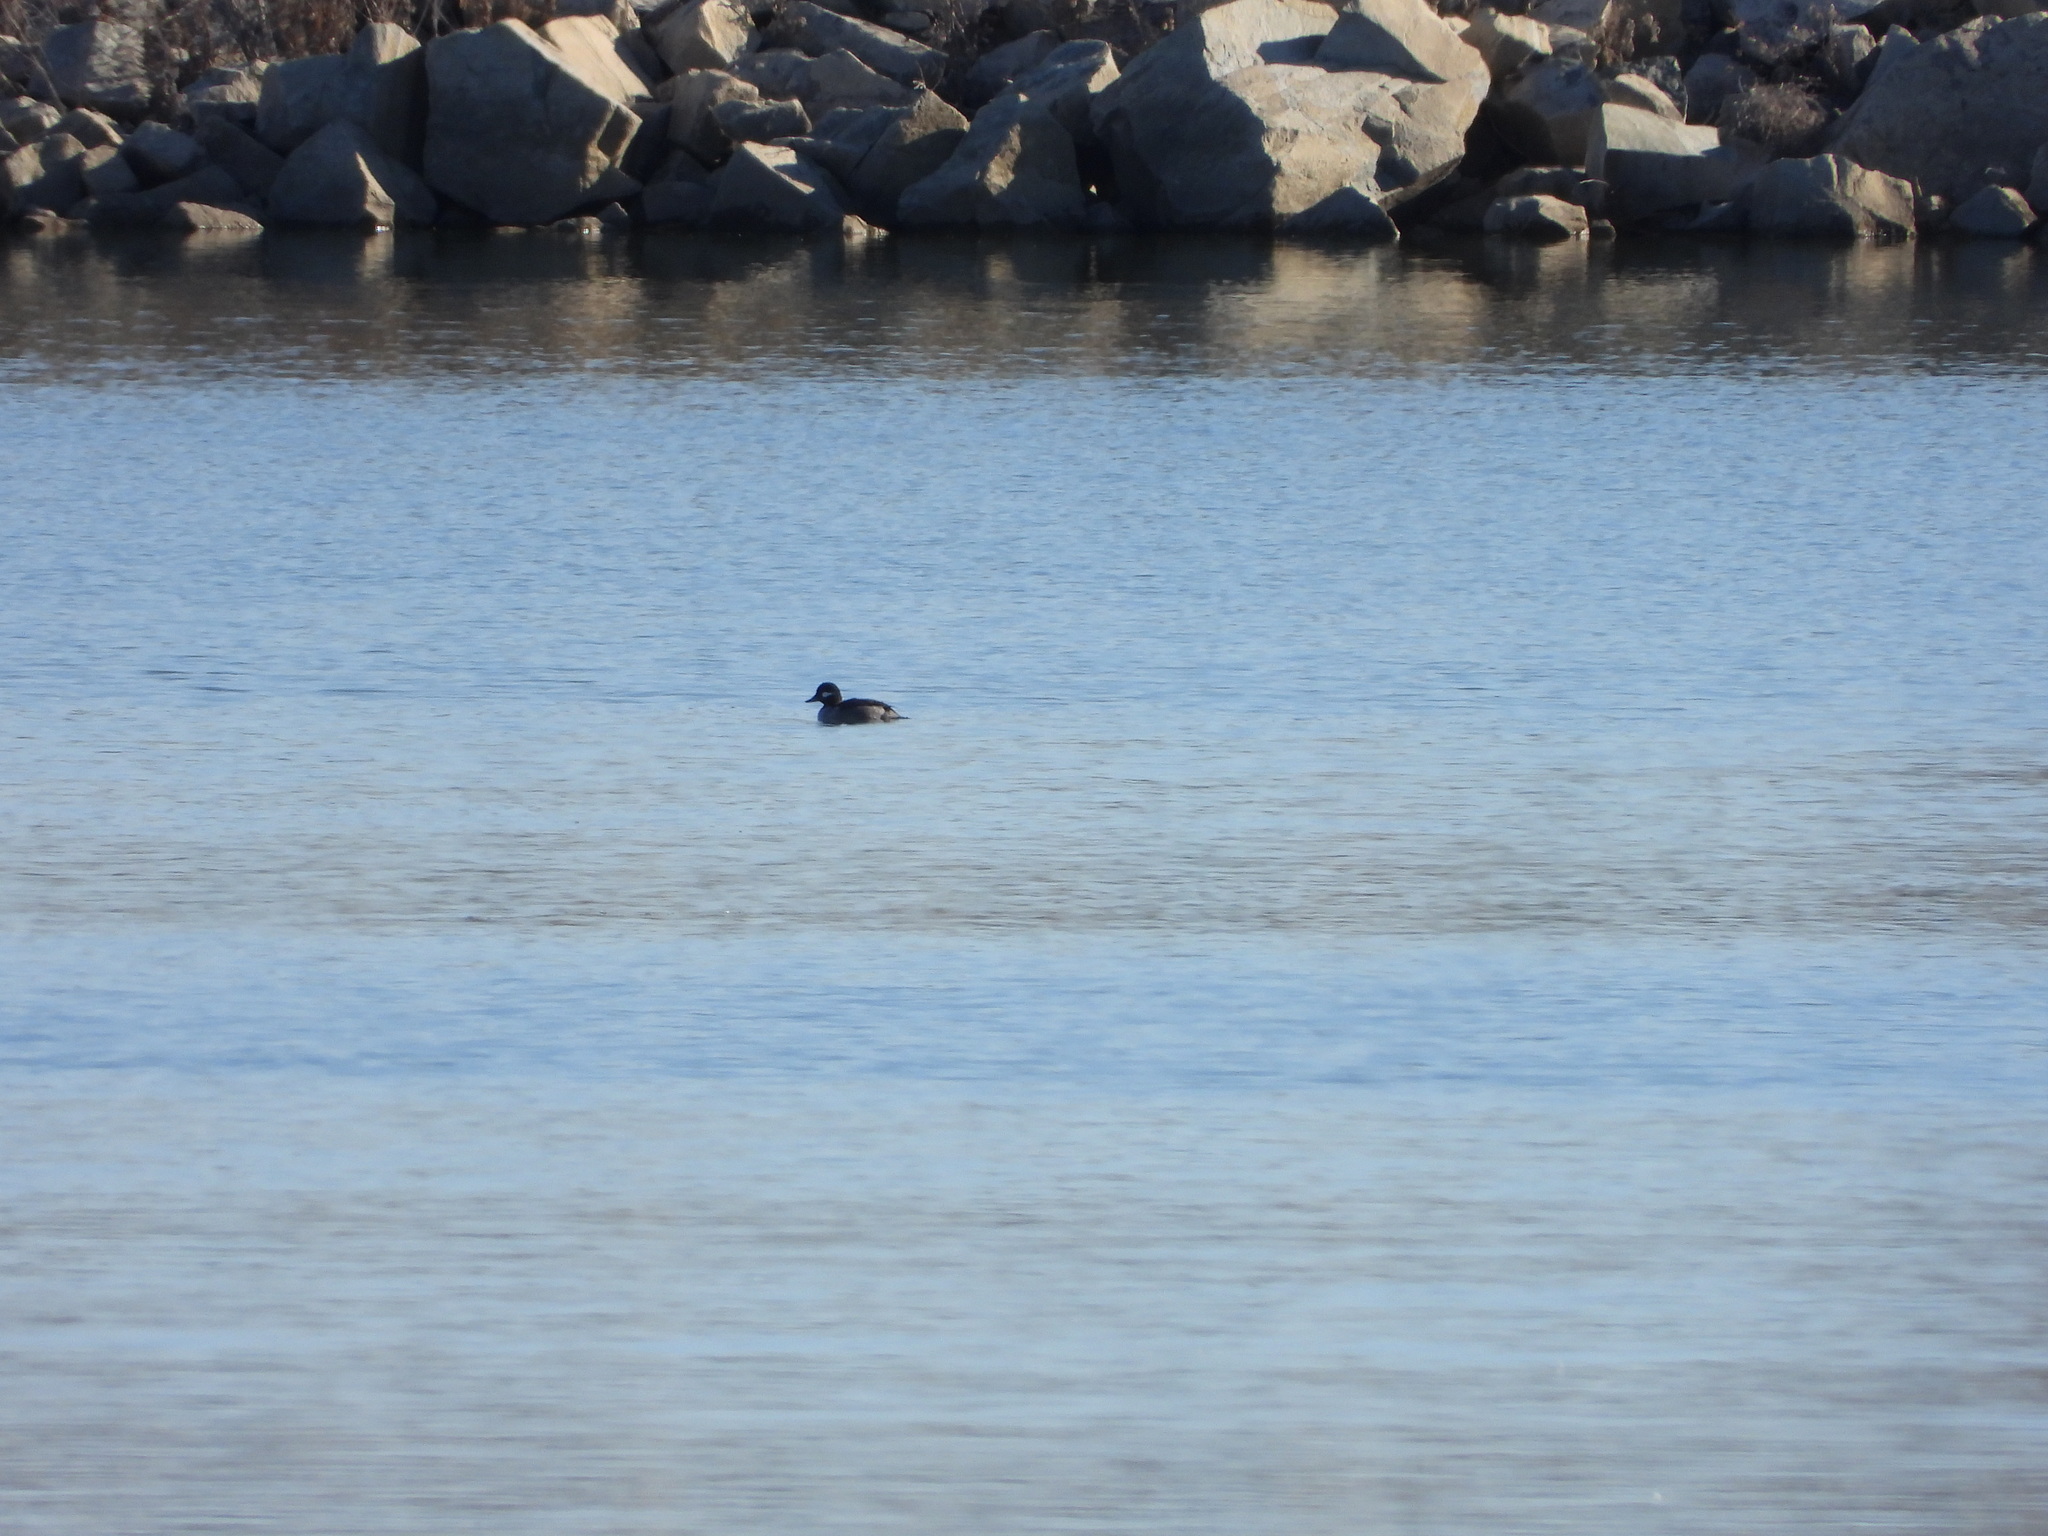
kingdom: Animalia
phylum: Chordata
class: Aves
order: Anseriformes
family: Anatidae
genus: Bucephala
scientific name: Bucephala albeola
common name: Bufflehead
